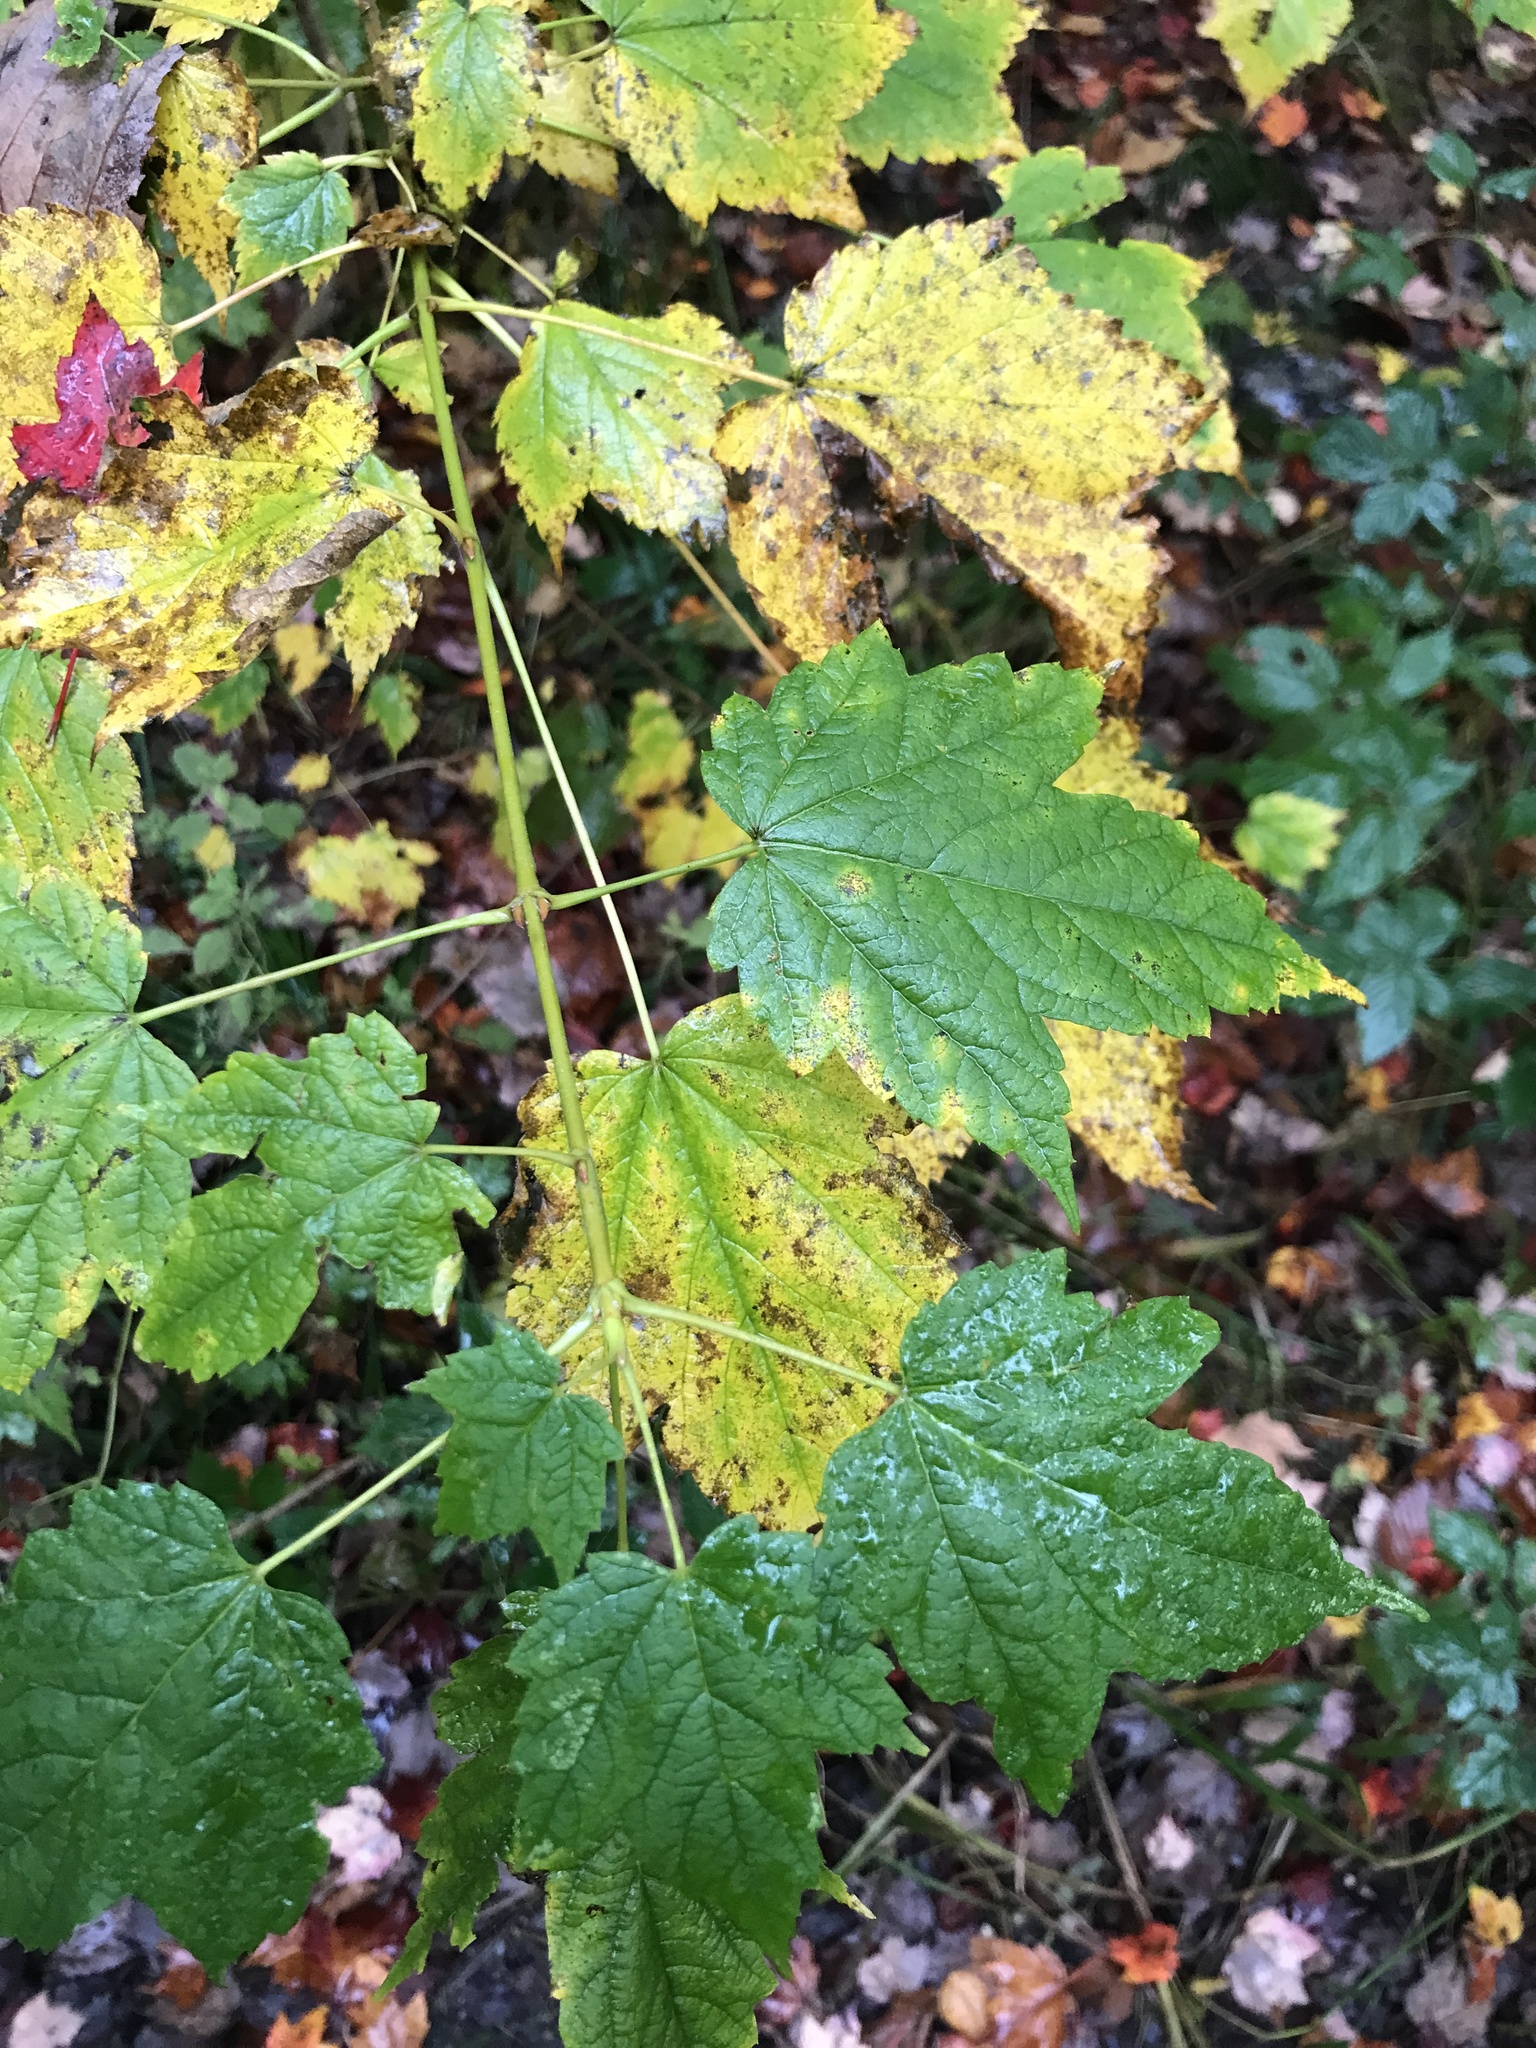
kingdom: Plantae
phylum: Tracheophyta
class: Magnoliopsida
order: Sapindales
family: Sapindaceae
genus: Acer
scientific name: Acer spicatum
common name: Mountain maple
